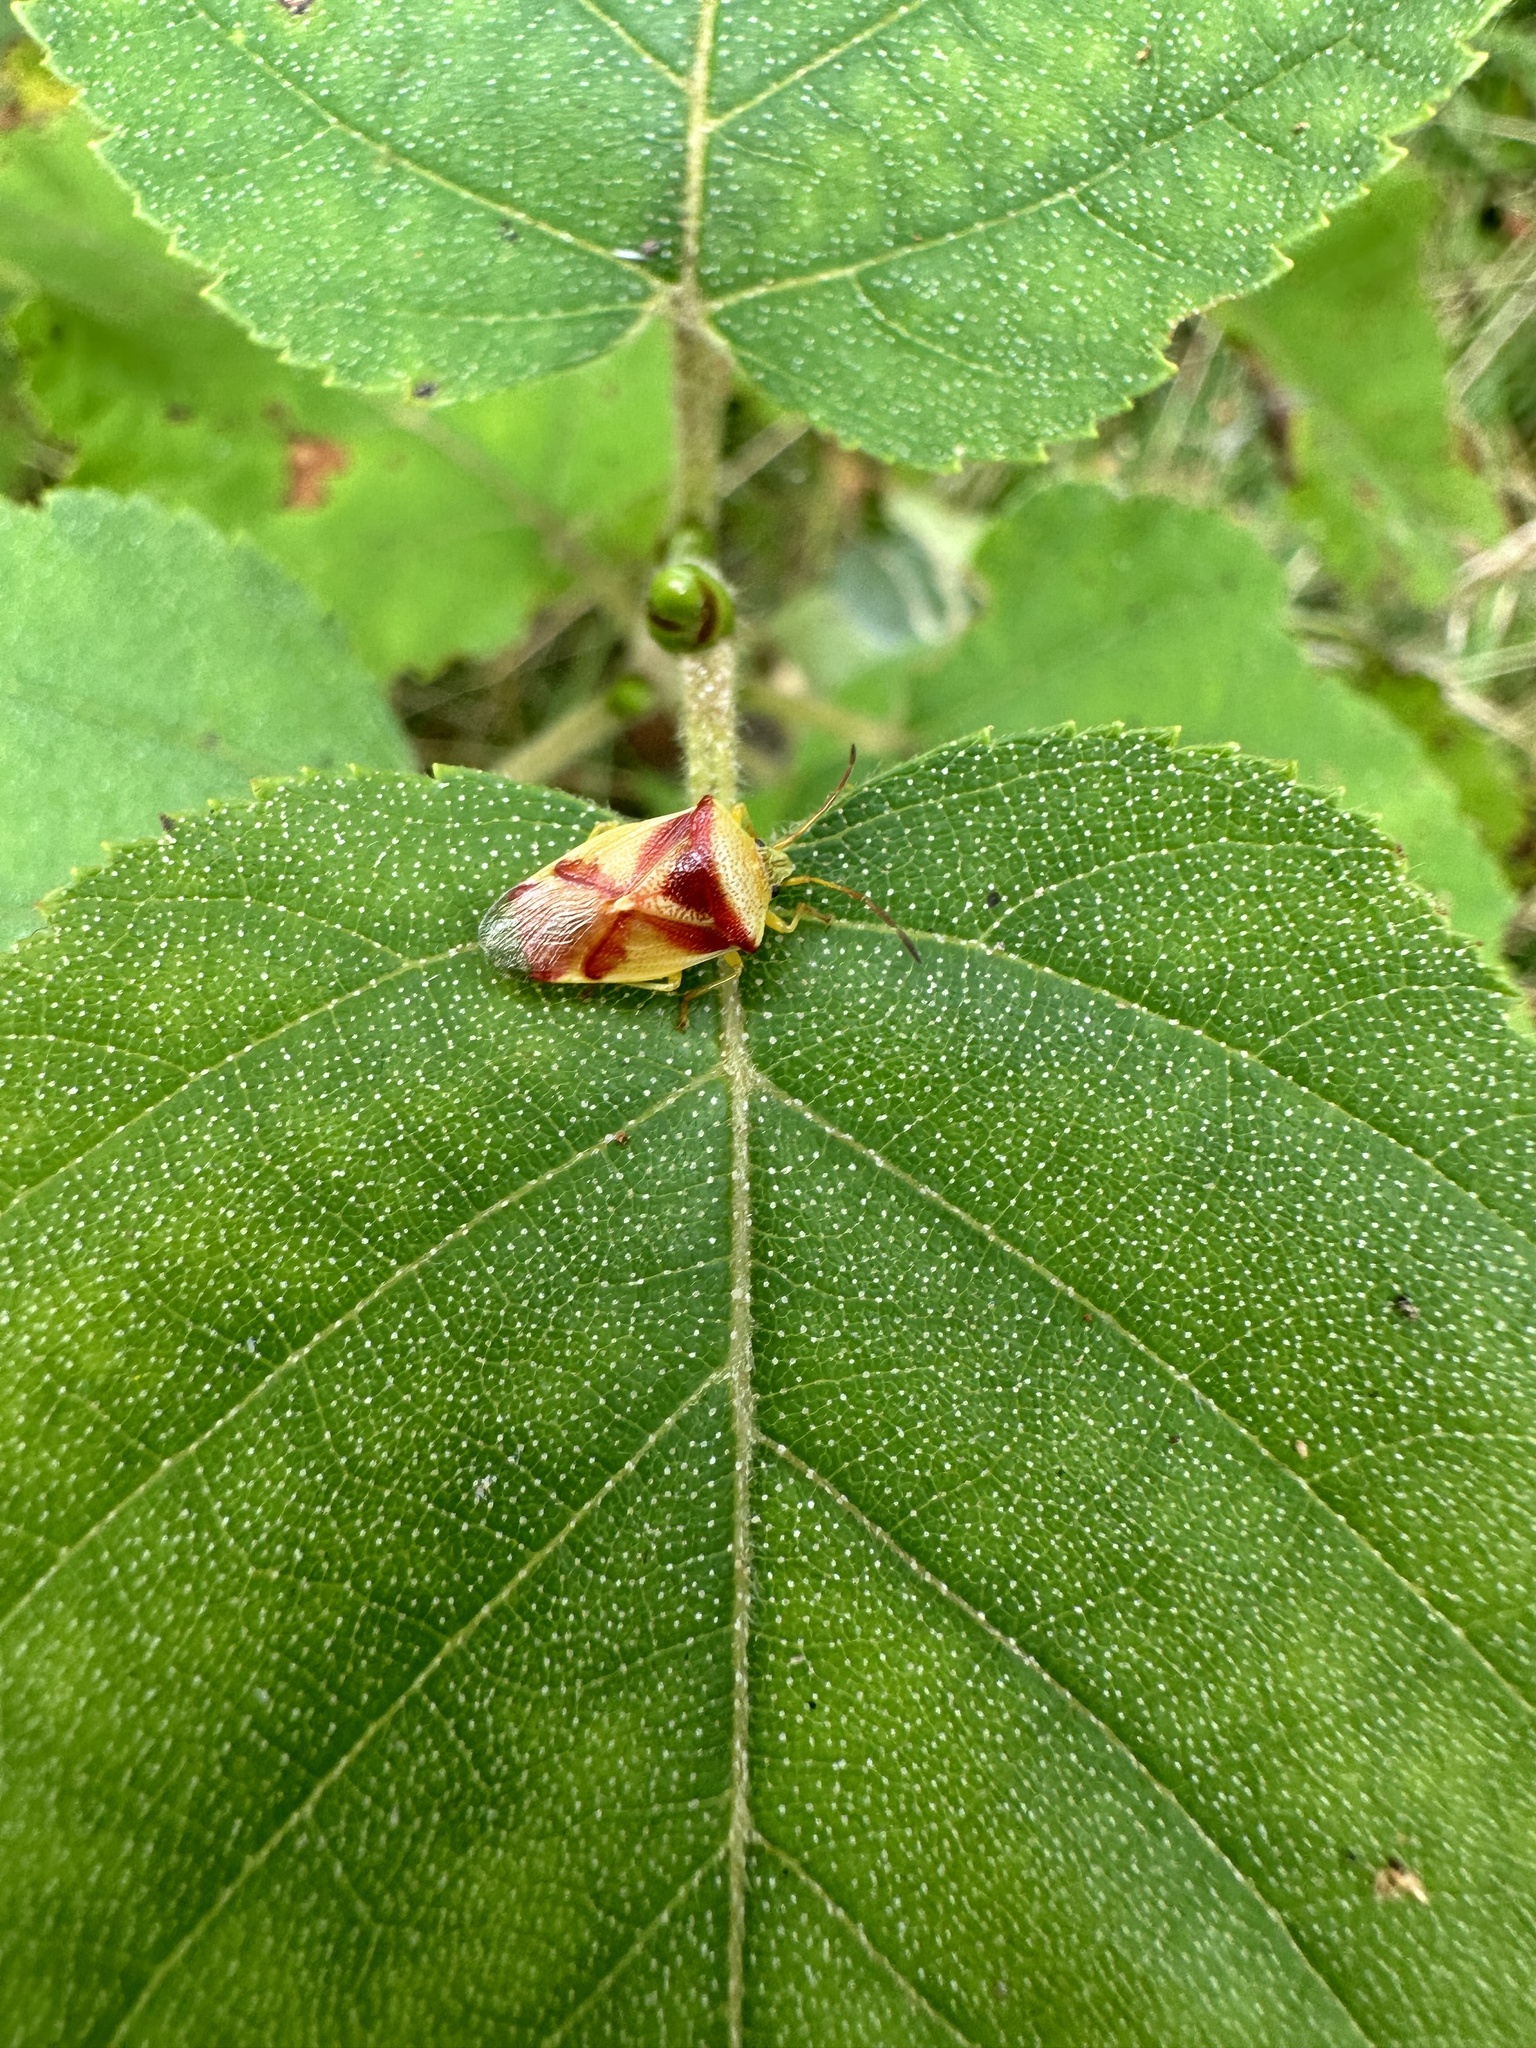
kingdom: Animalia
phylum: Arthropoda
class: Insecta
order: Hemiptera
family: Acanthosomatidae
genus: Elasmostethus
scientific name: Elasmostethus cruciatus
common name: Red-cross shield bug
